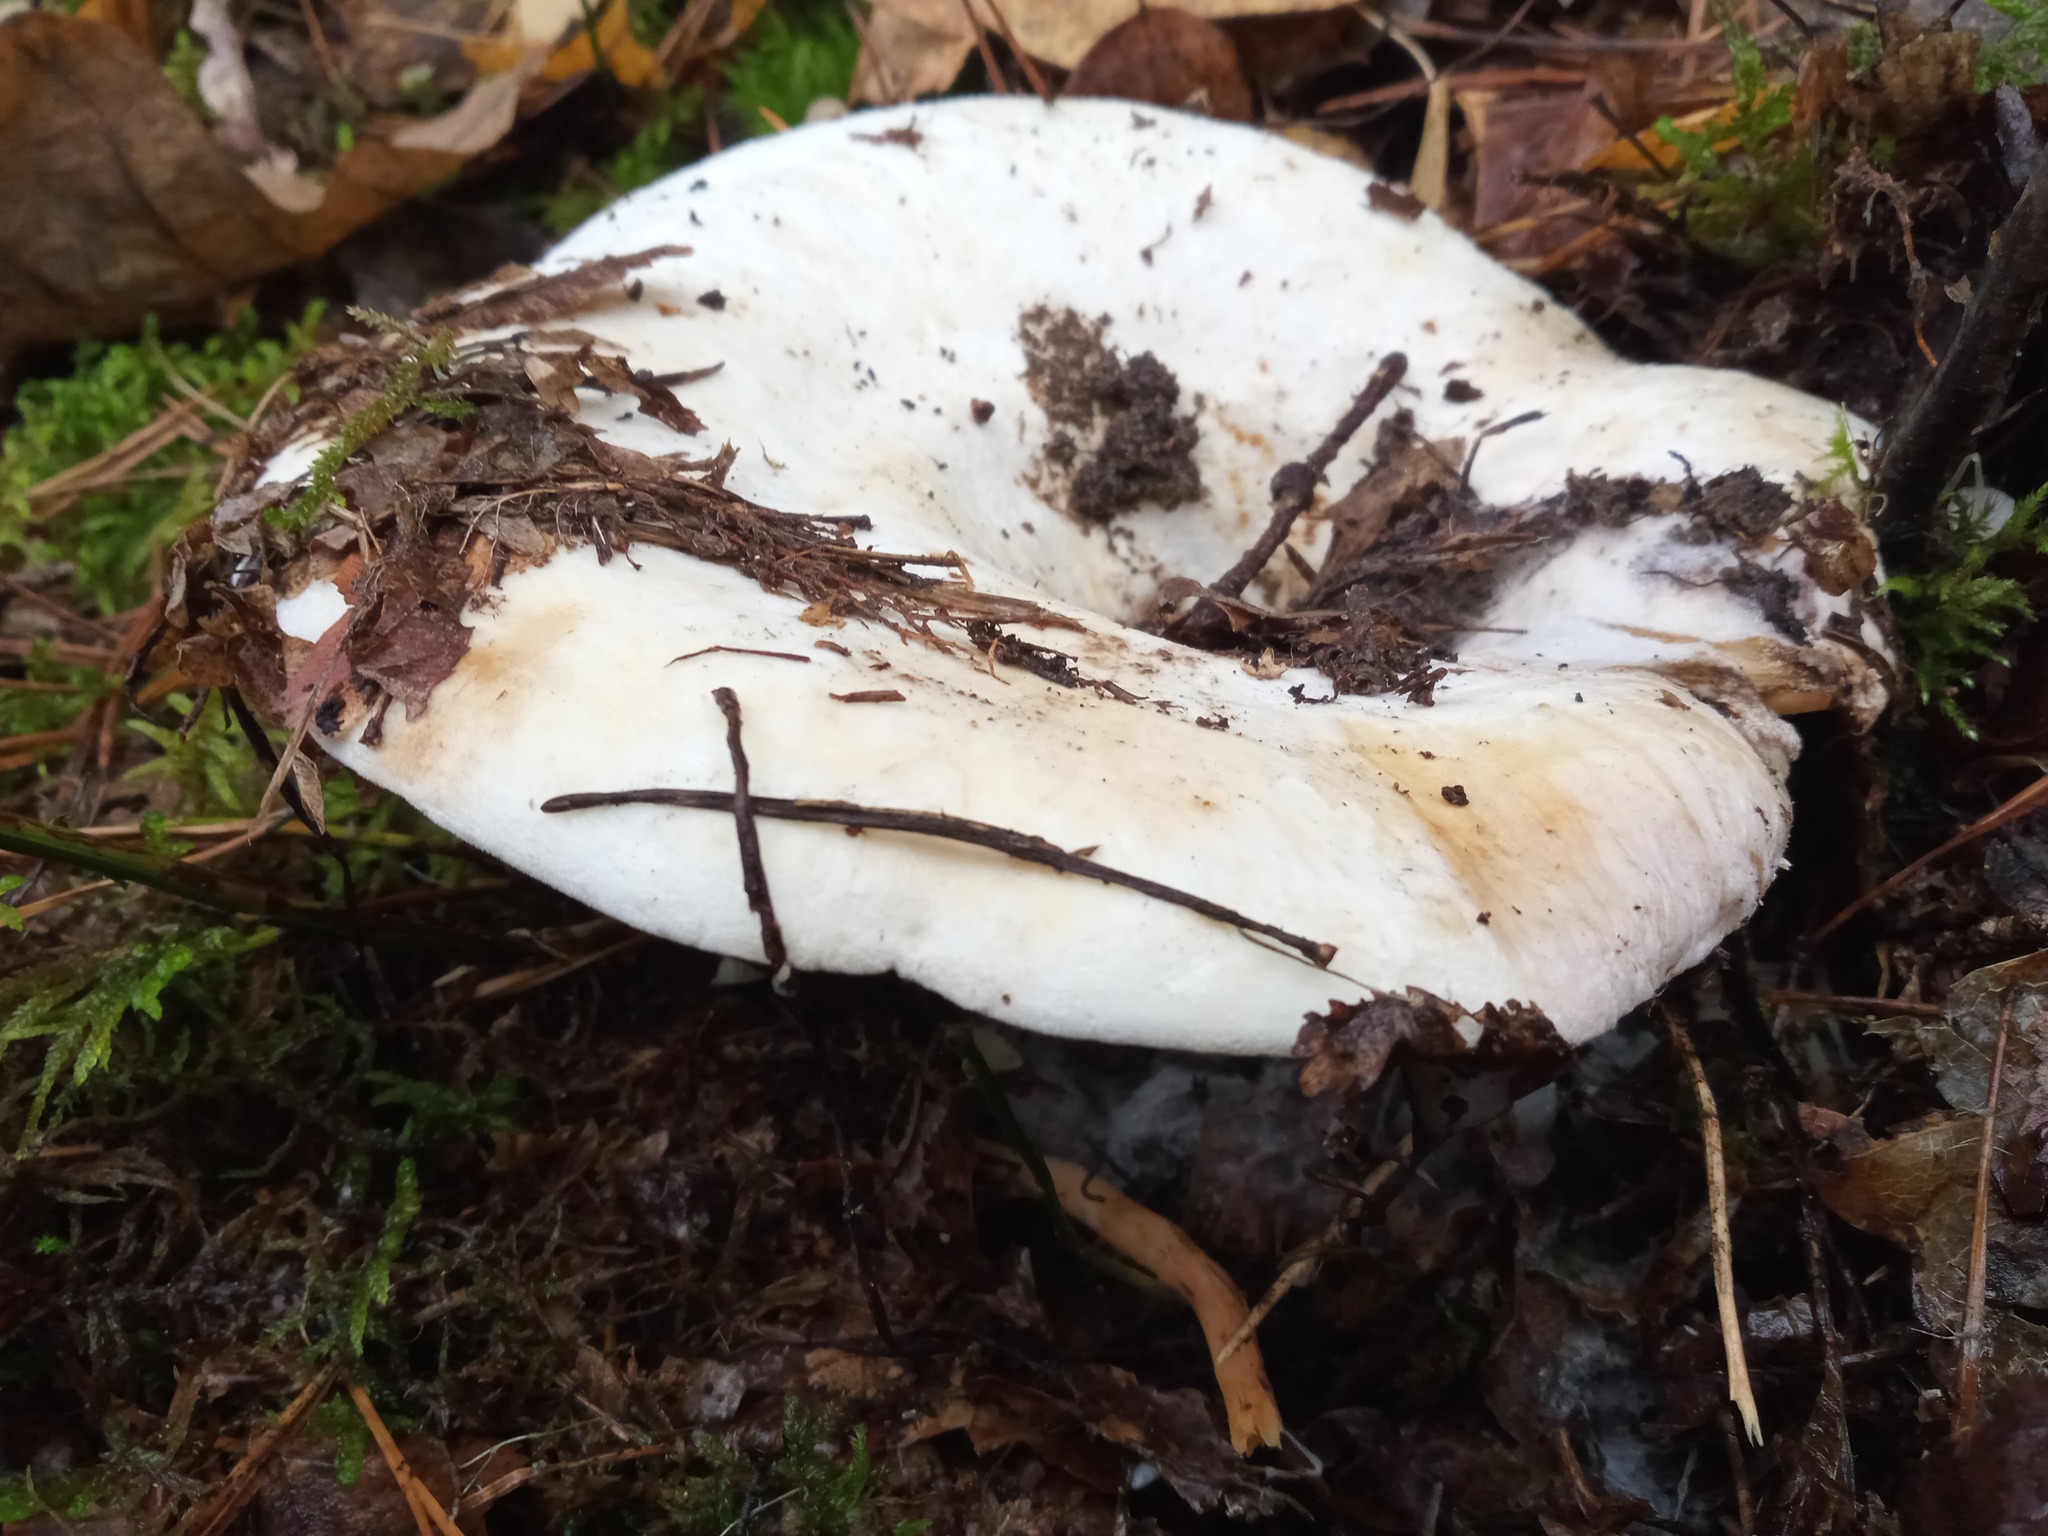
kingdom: Fungi
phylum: Basidiomycota
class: Agaricomycetes
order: Russulales
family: Russulaceae
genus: Lactifluus
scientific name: Lactifluus vellereus
